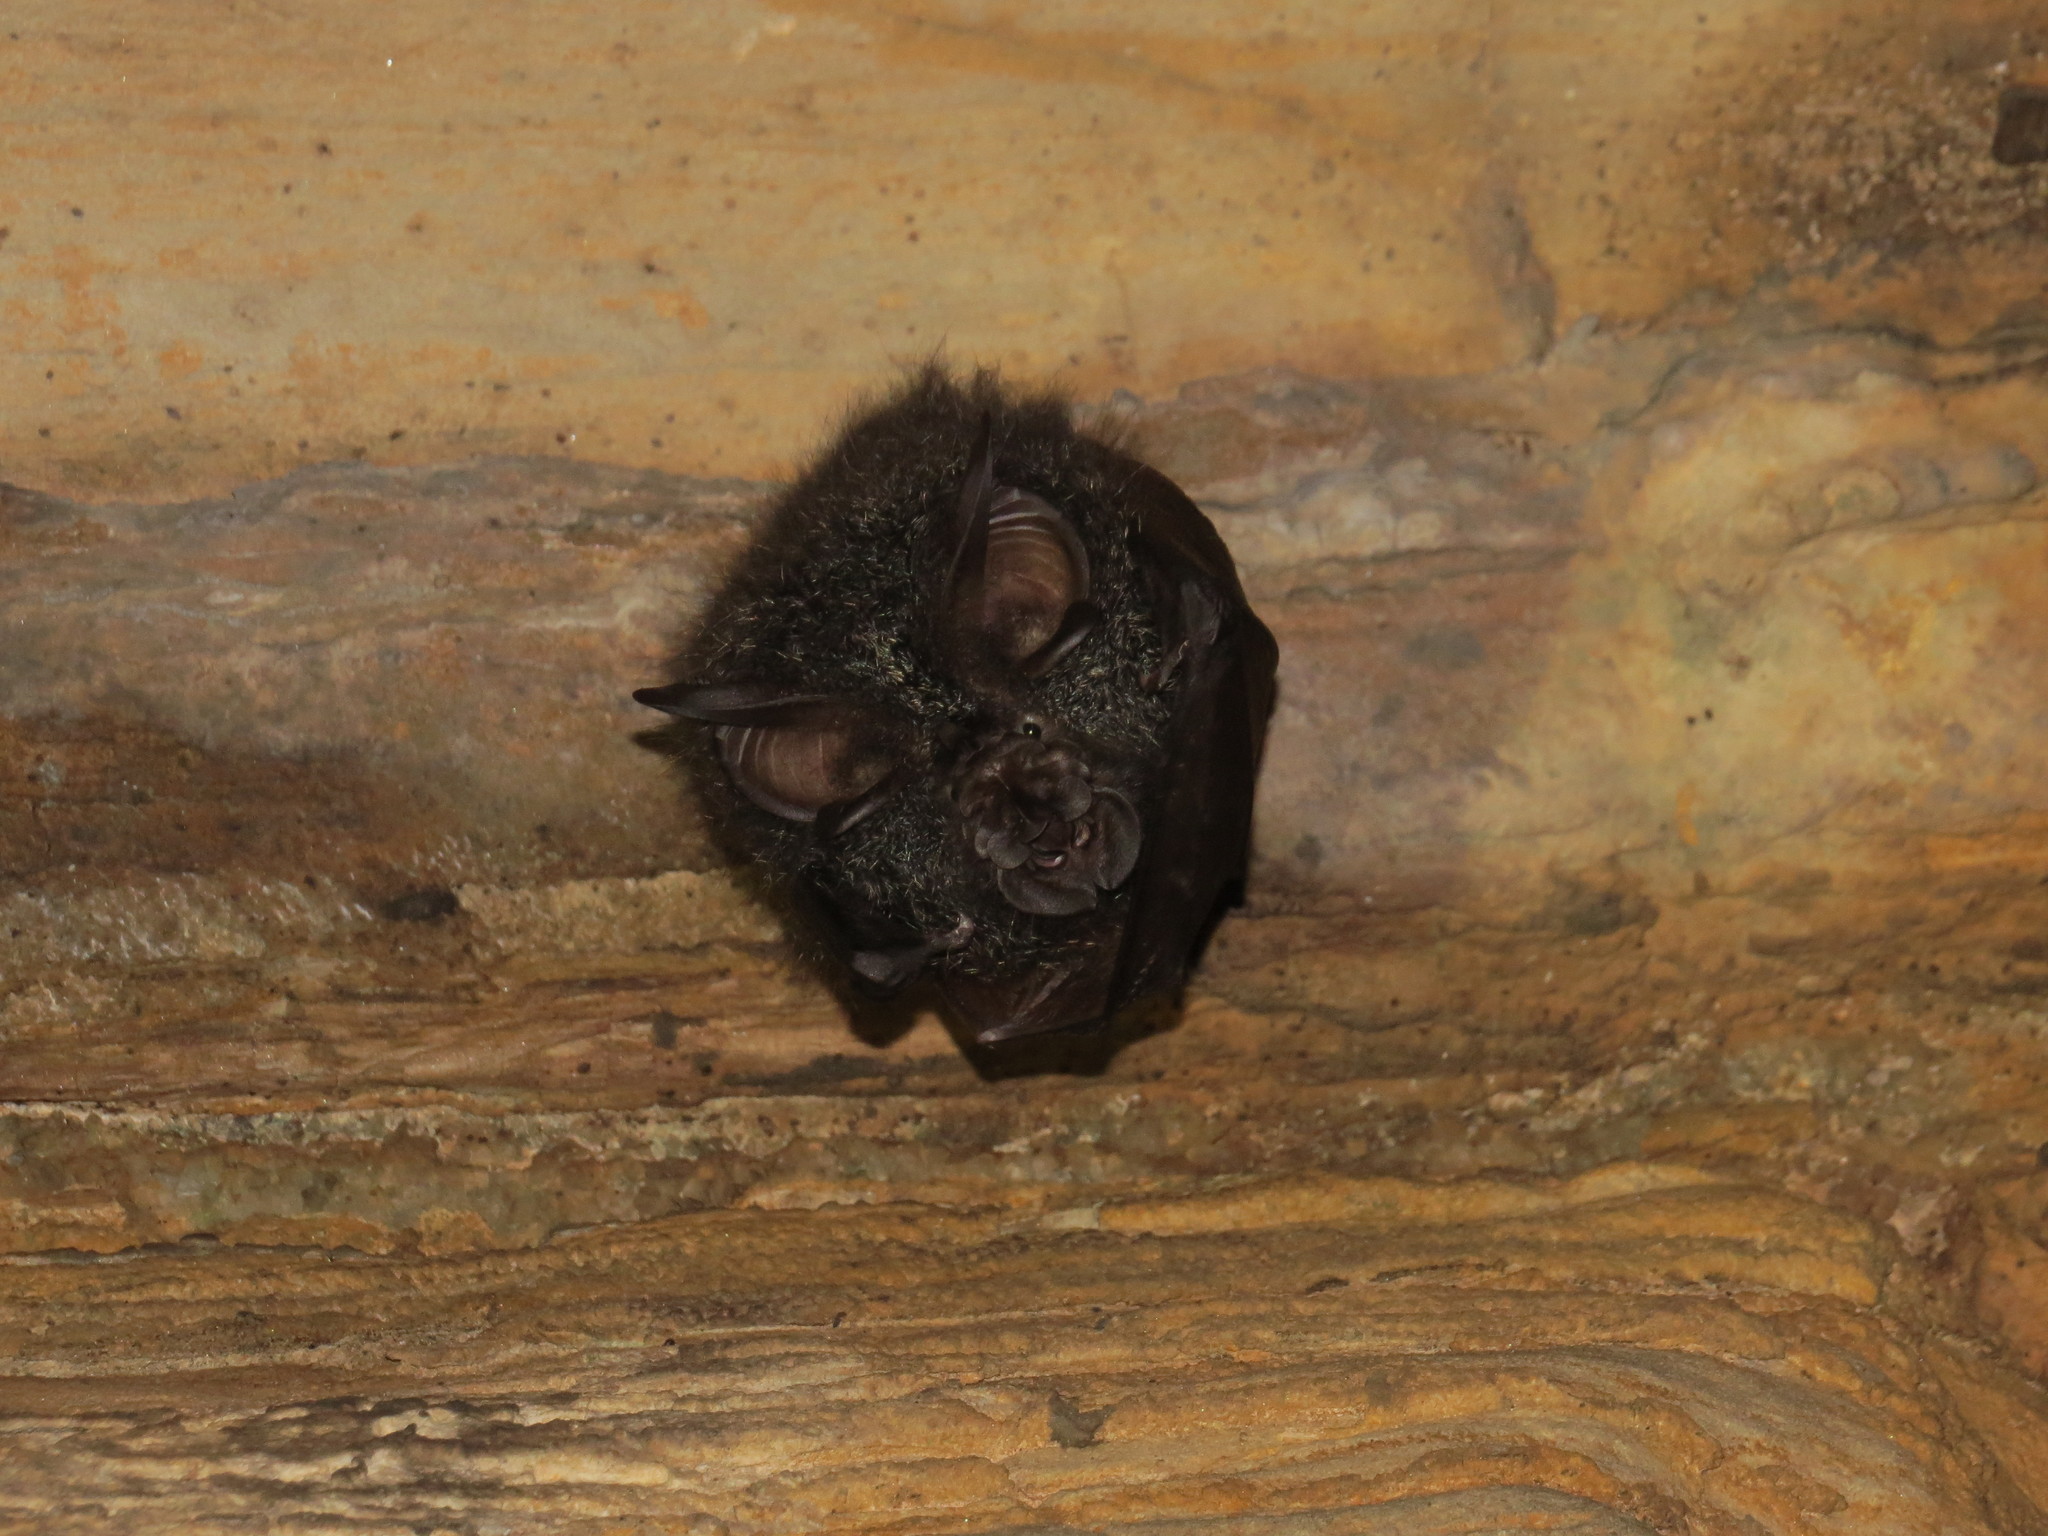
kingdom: Animalia
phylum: Chordata
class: Mammalia
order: Chiroptera
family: Rhinolophidae
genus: Rhinolophus
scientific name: Rhinolophus luctus
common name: Woolly horseshoe bat
